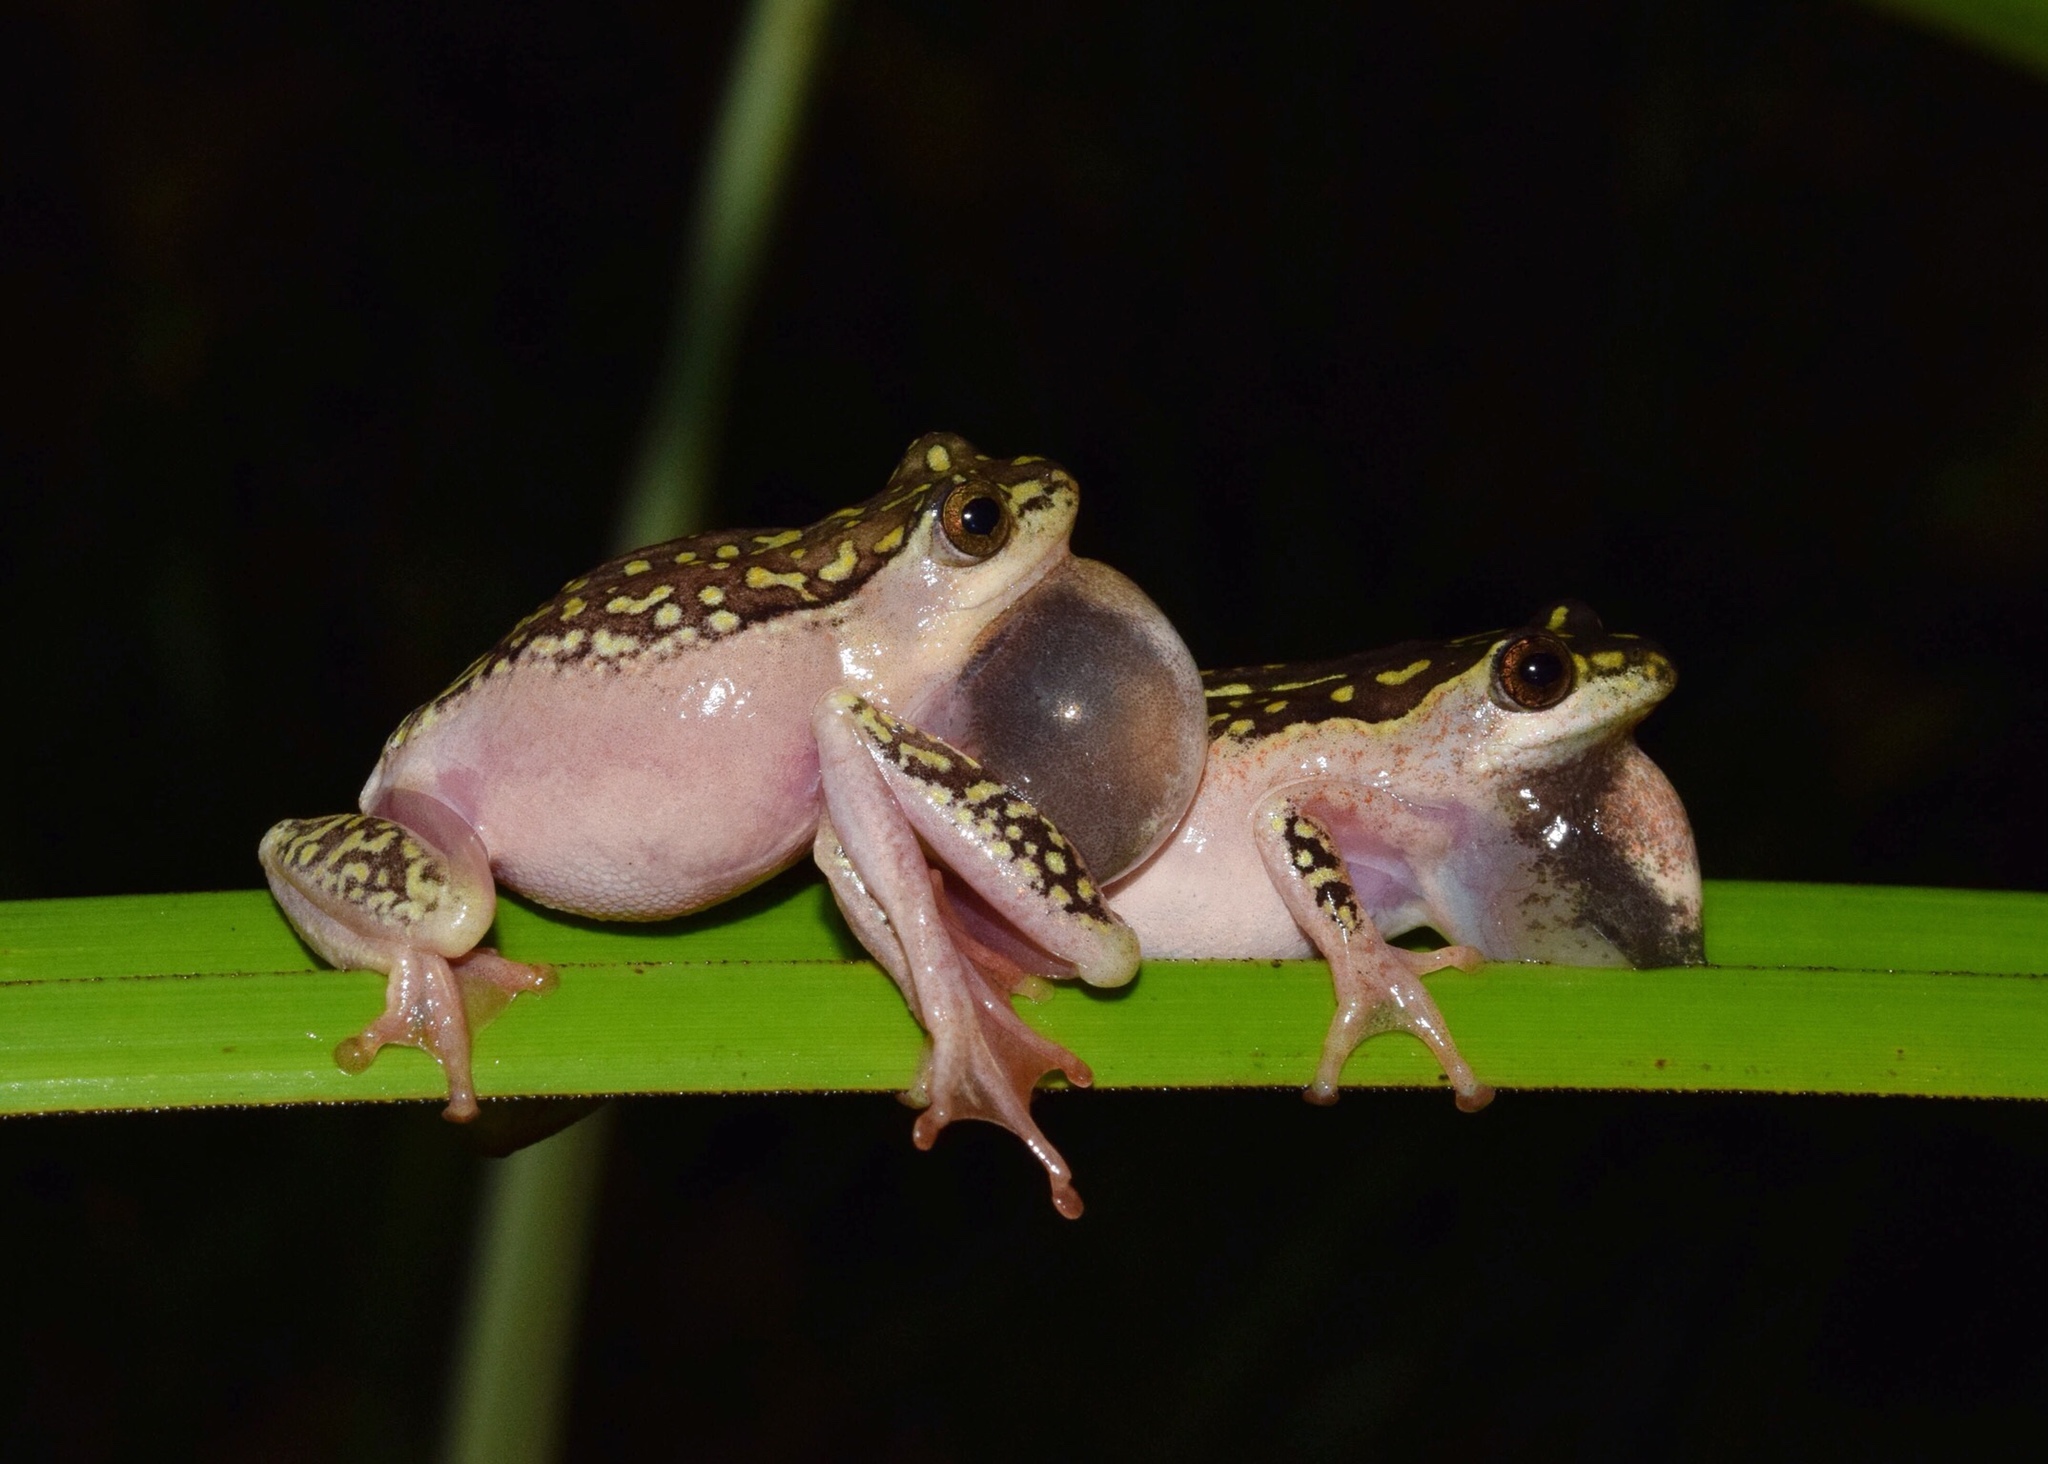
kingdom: Animalia
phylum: Chordata
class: Amphibia
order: Anura
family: Hyperoliidae
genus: Hyperolius
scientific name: Hyperolius marmoratus
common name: Painted reed frog
